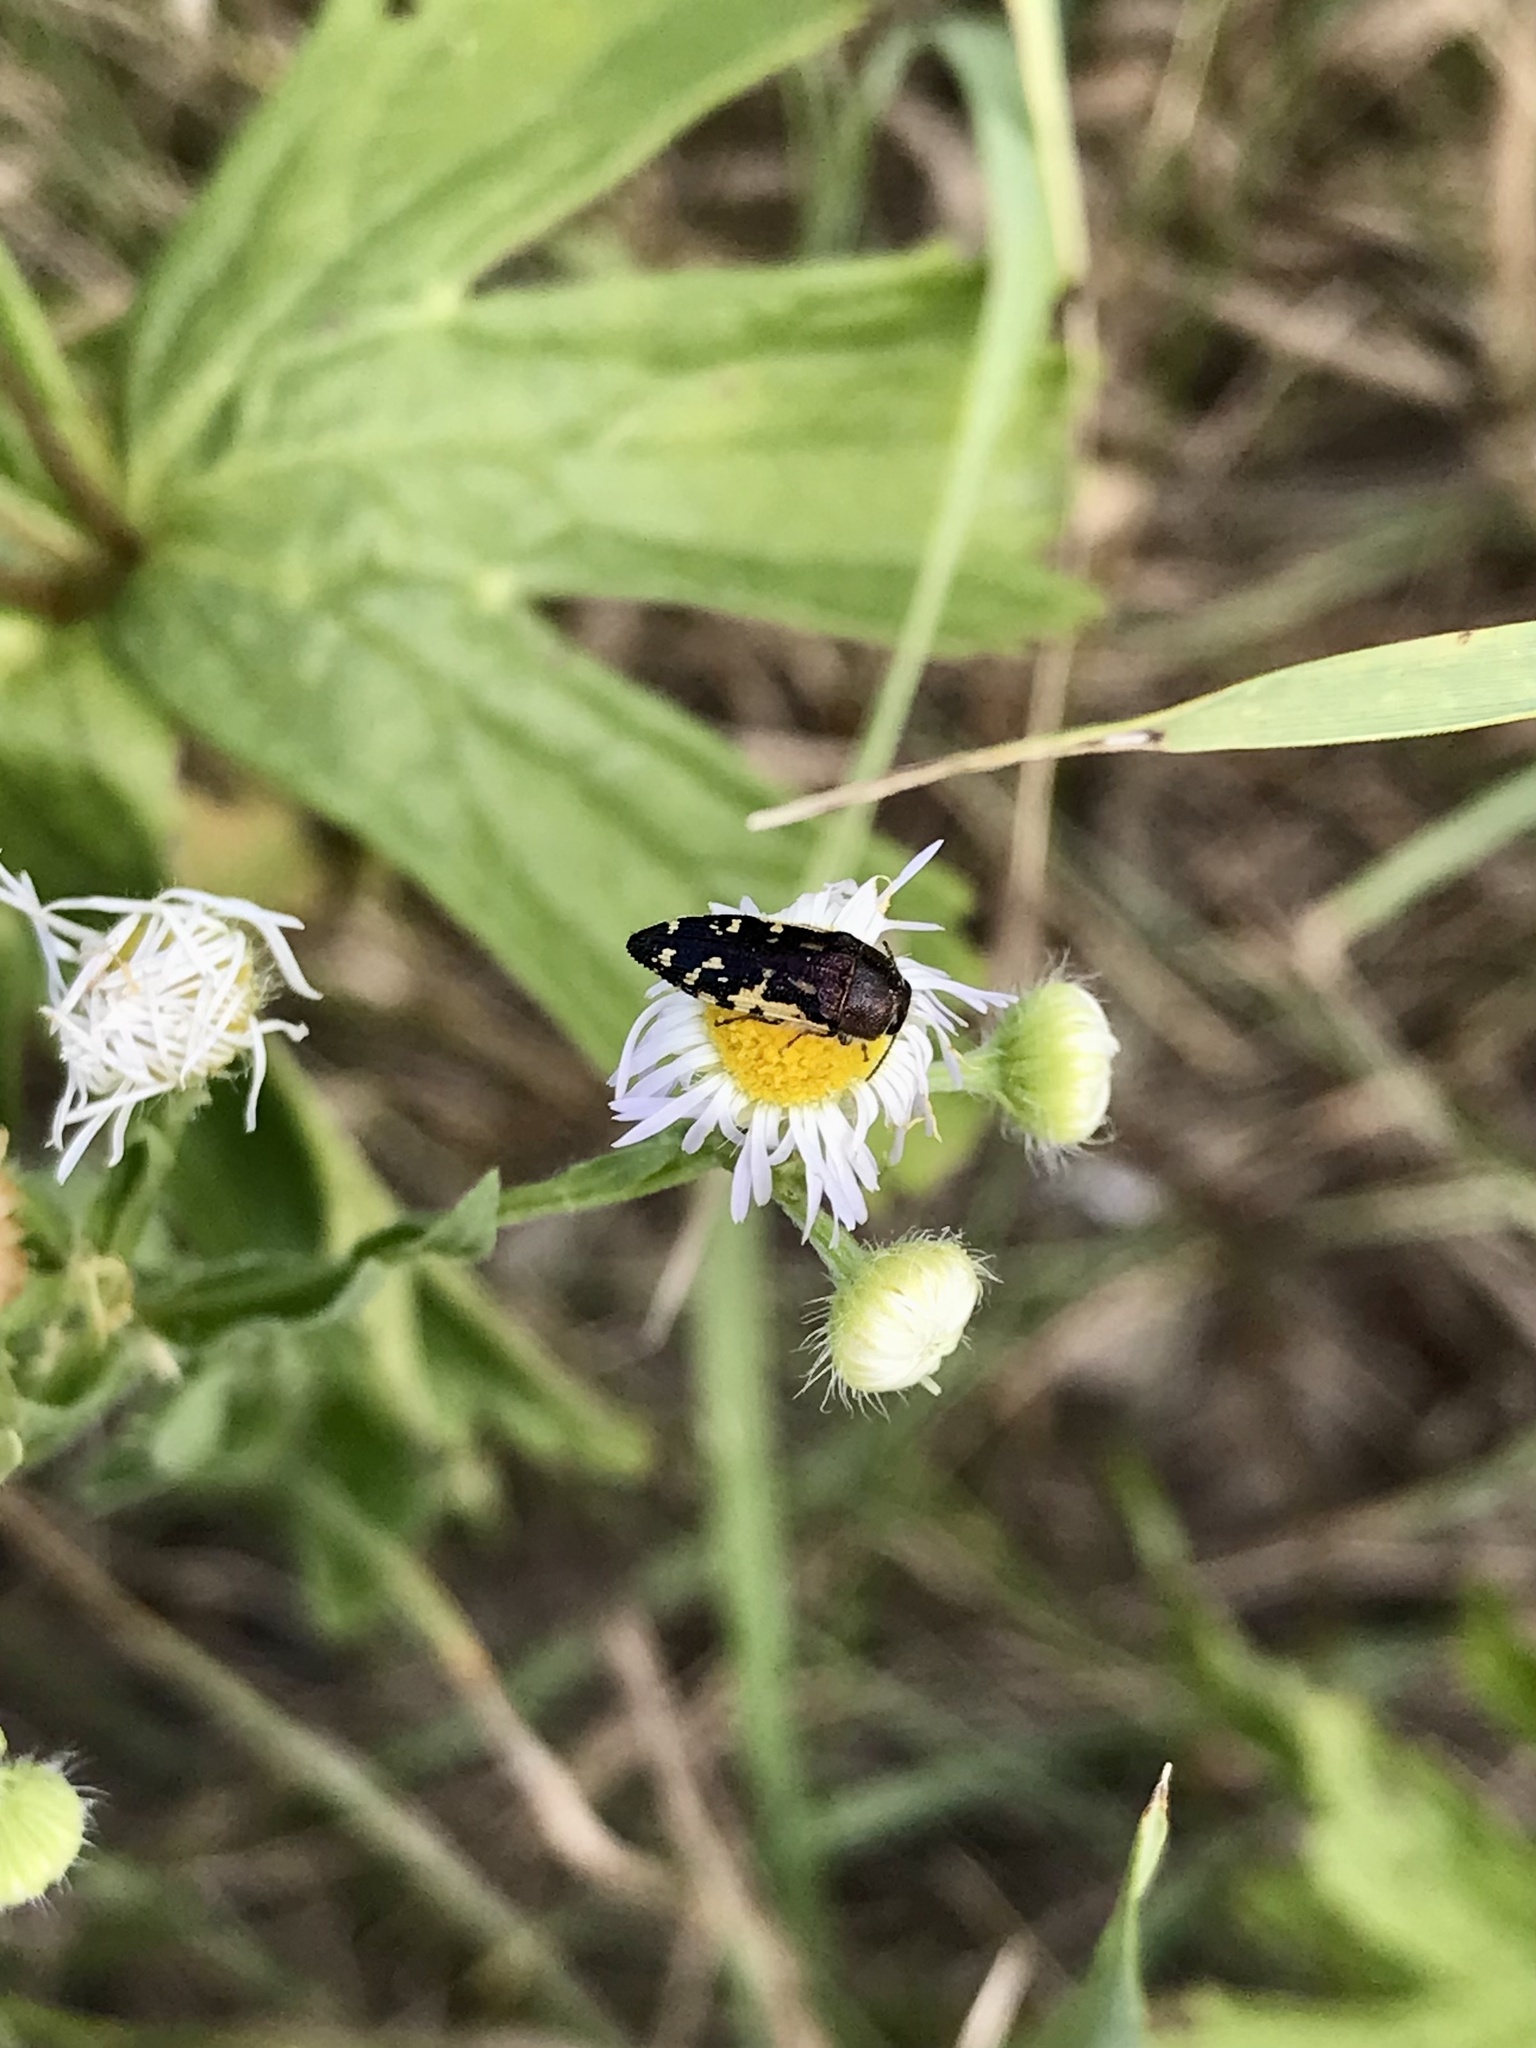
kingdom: Animalia
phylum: Arthropoda
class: Insecta
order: Coleoptera
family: Buprestidae
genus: Acmaeodera
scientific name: Acmaeodera pulchella
